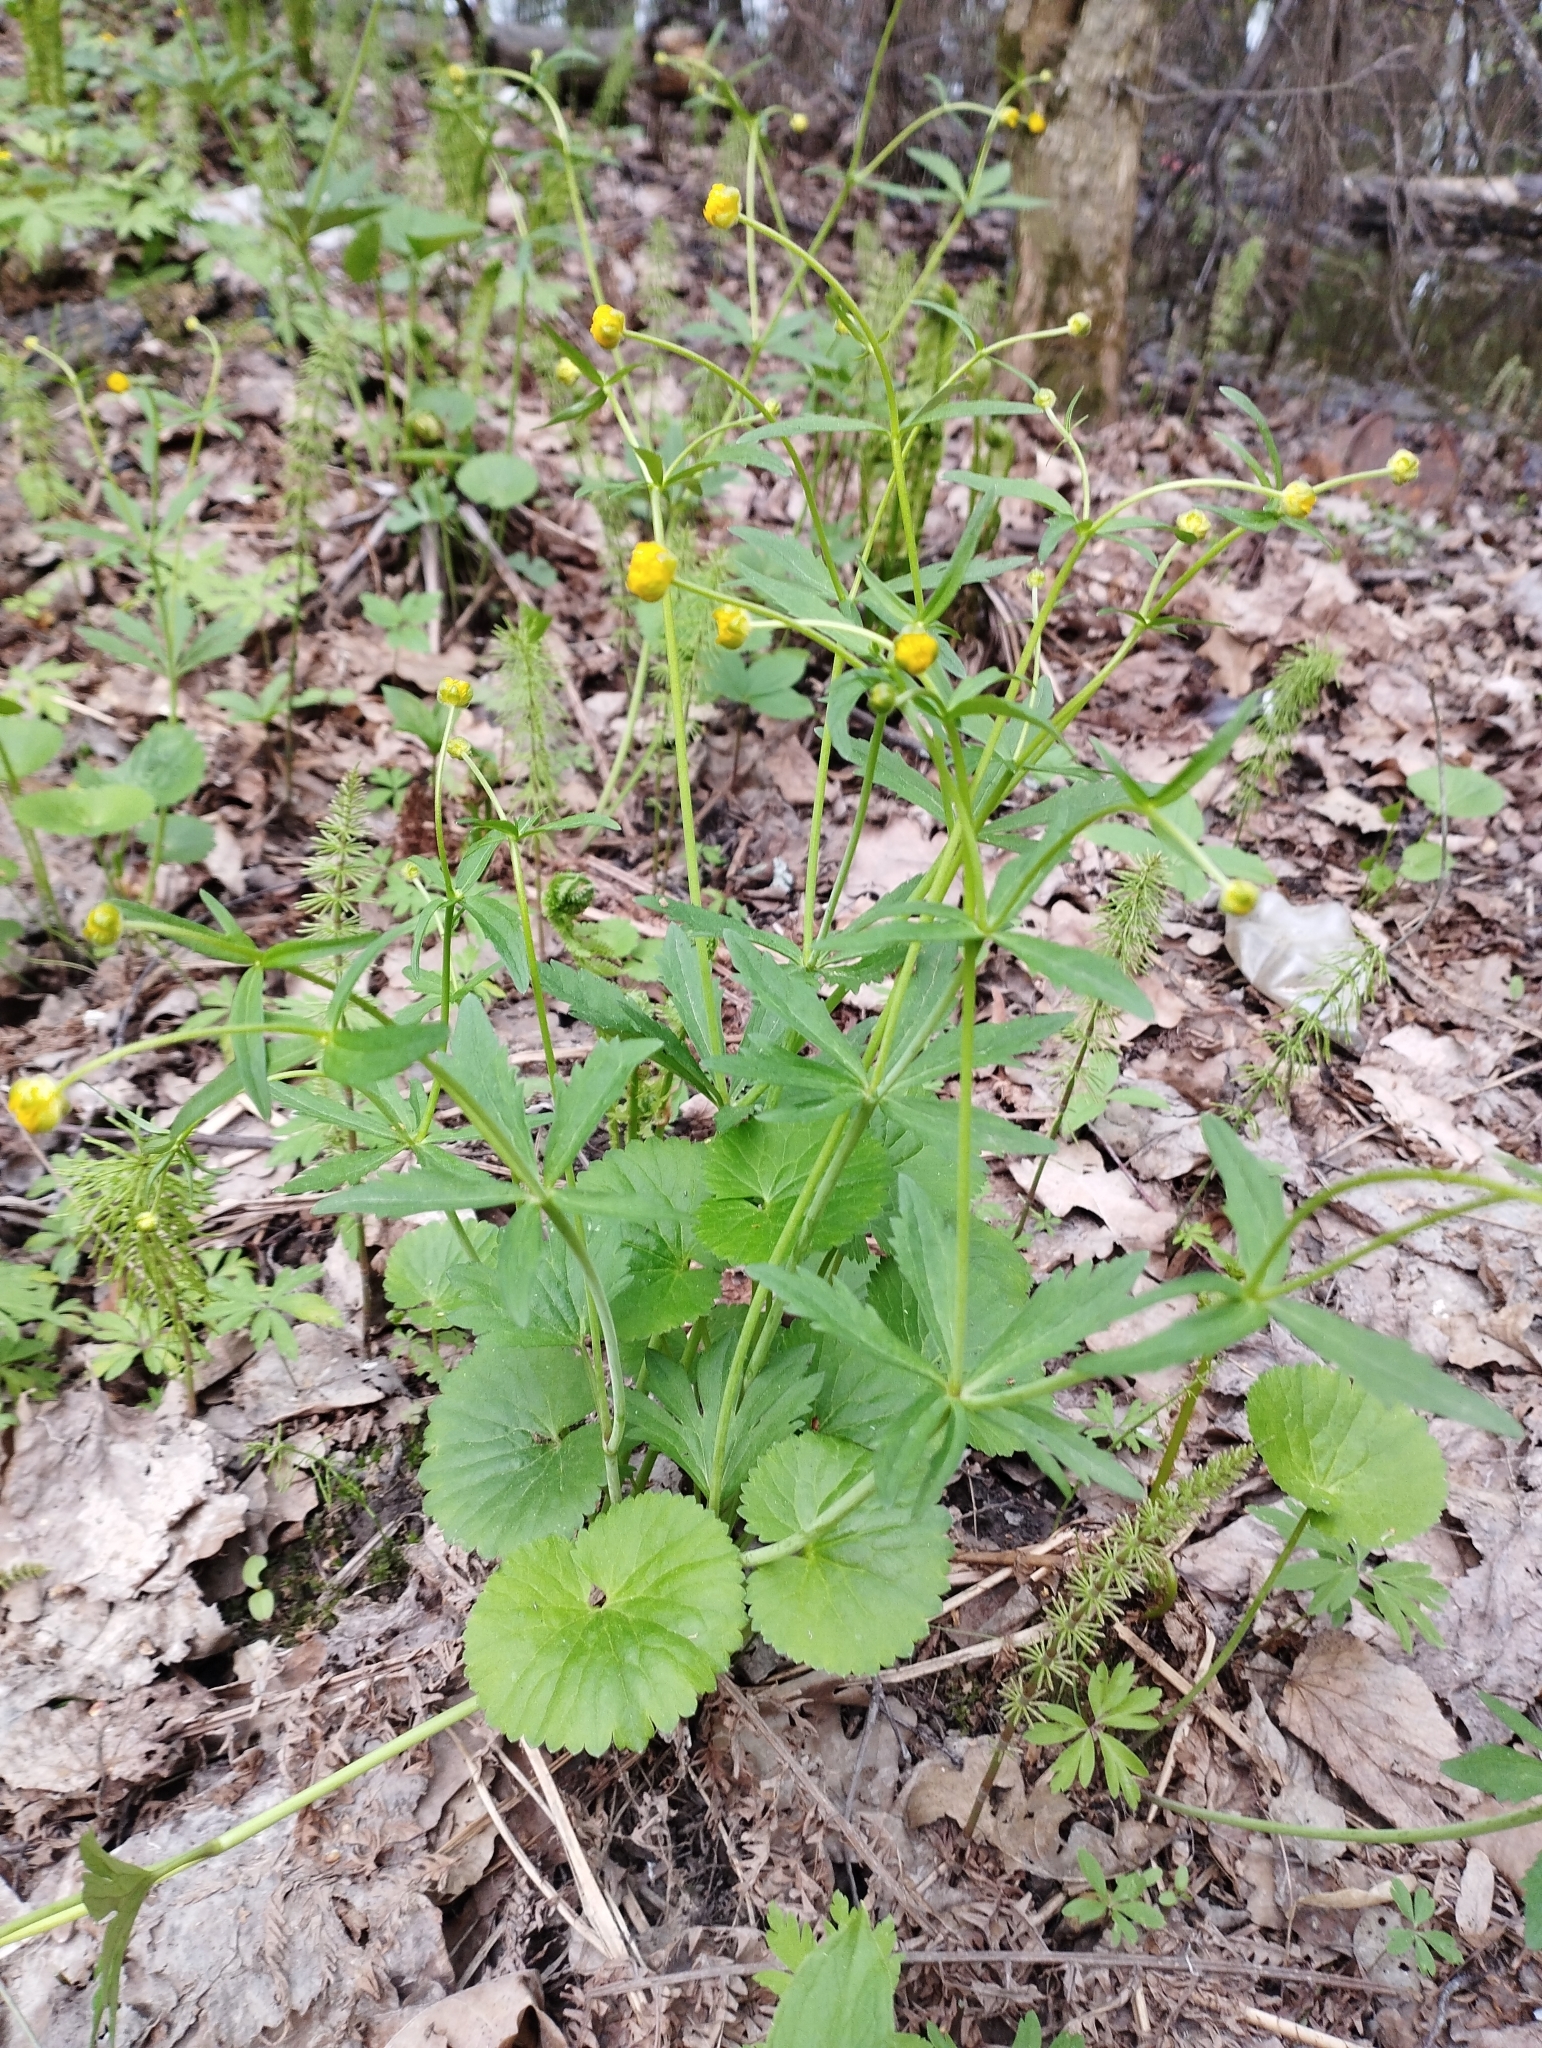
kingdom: Plantae
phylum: Tracheophyta
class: Magnoliopsida
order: Ranunculales
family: Ranunculaceae
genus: Ranunculus
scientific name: Ranunculus cassubicus
